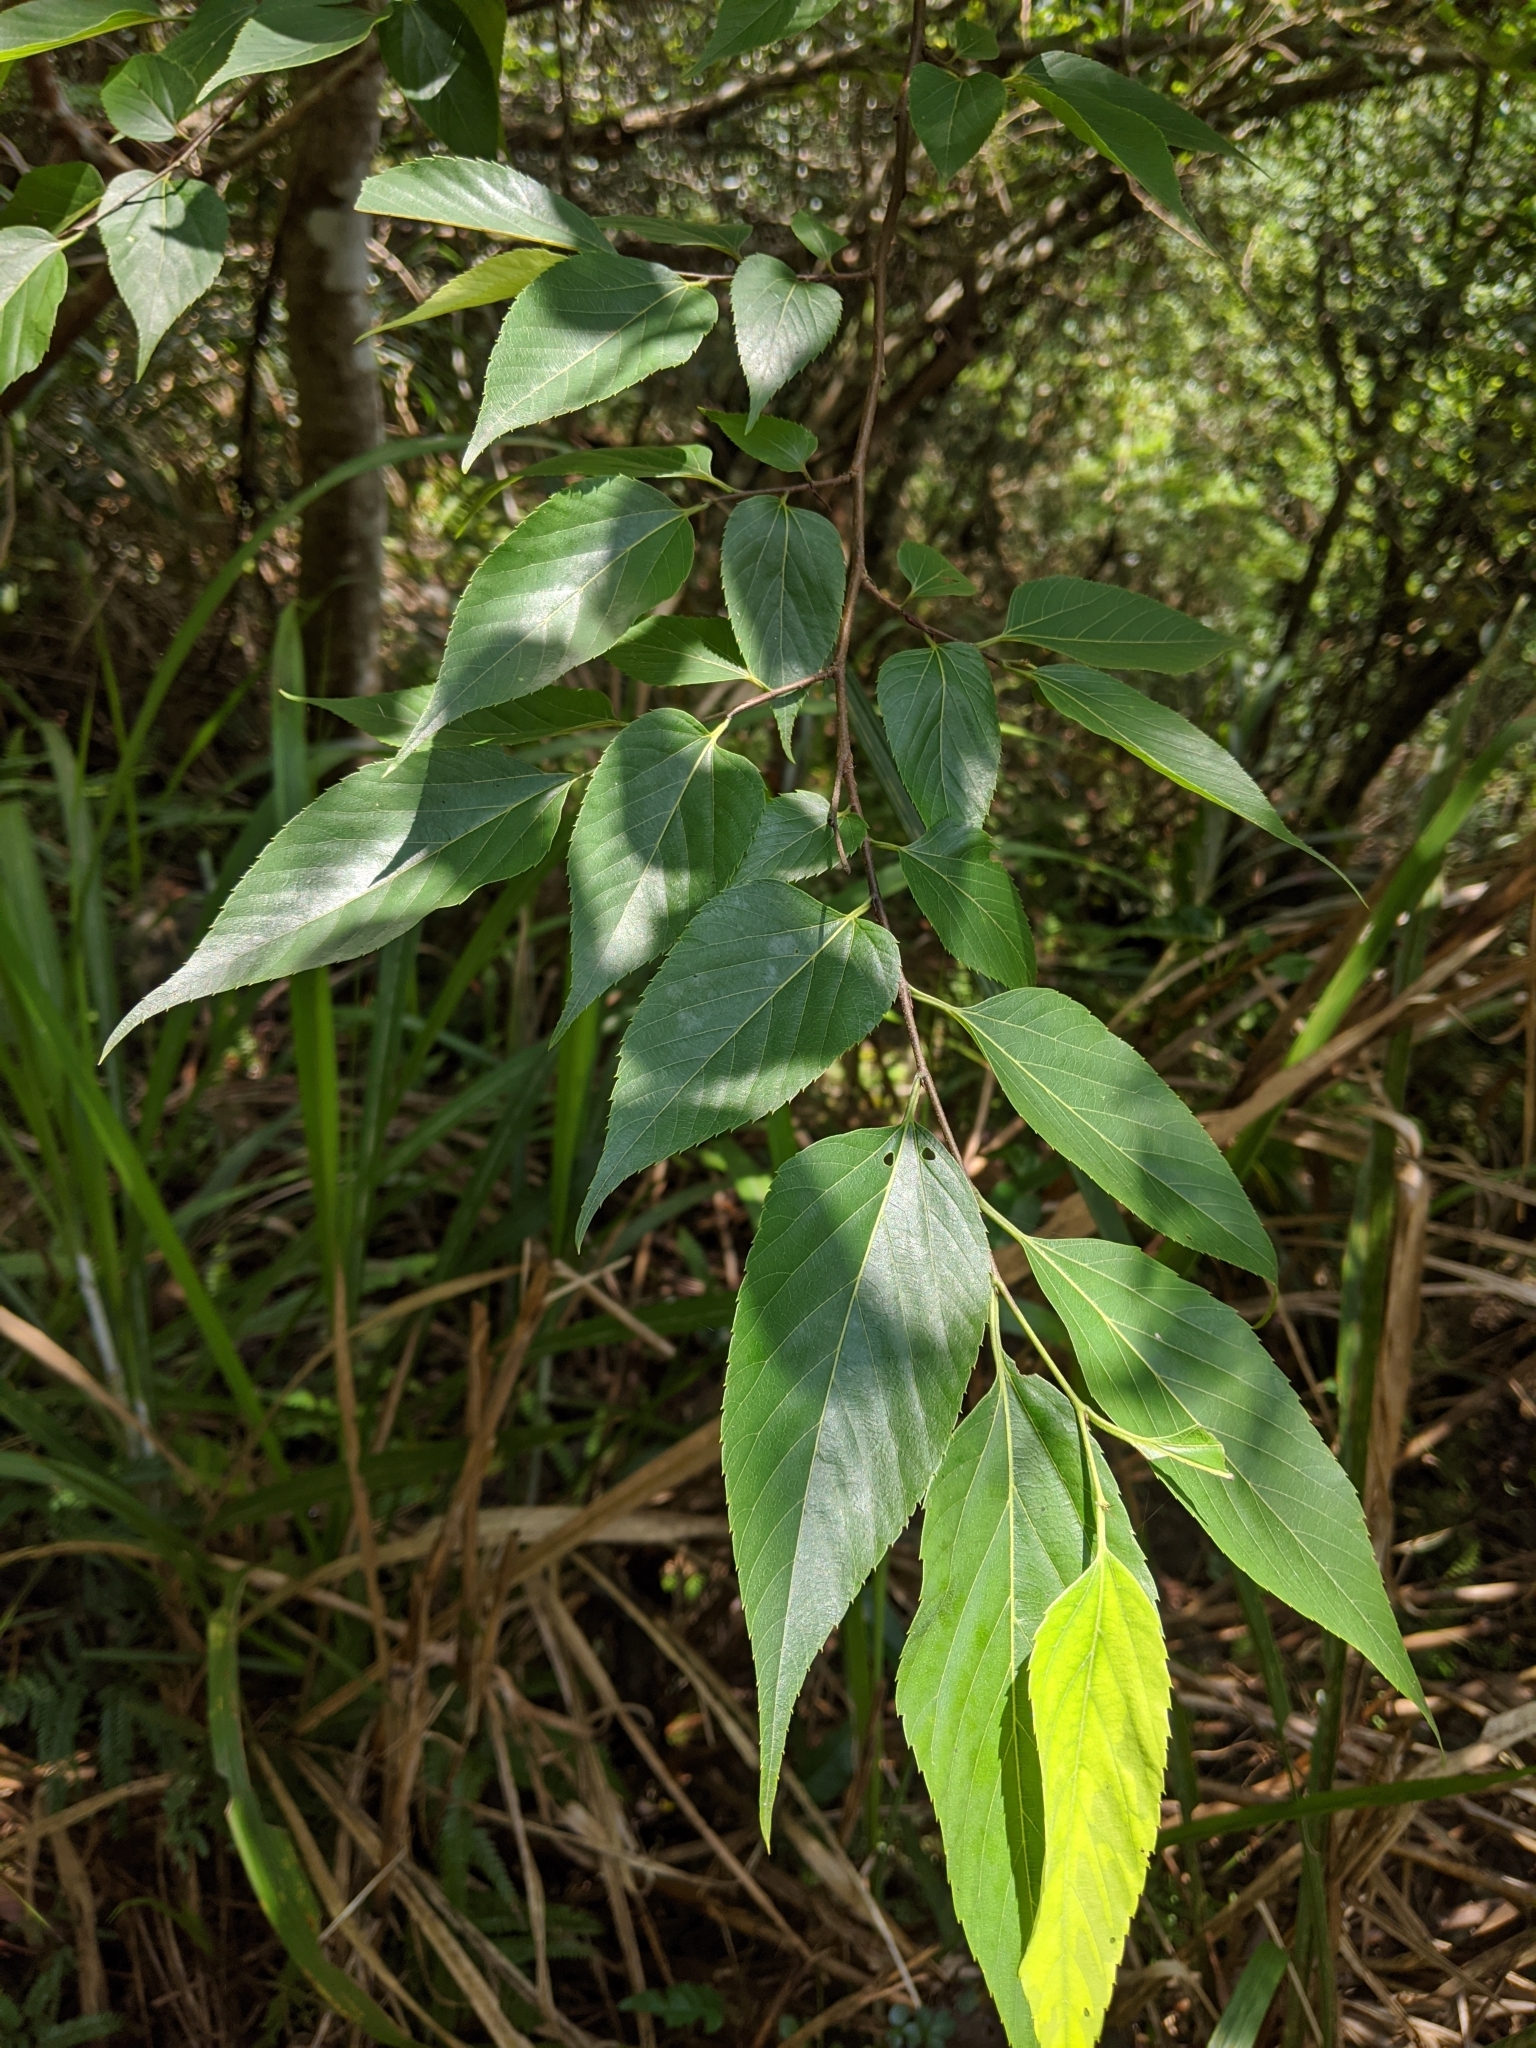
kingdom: Plantae
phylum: Tracheophyta
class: Magnoliopsida
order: Rosales
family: Cannabaceae
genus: Aphananthe
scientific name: Aphananthe aspera
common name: Mukutree
